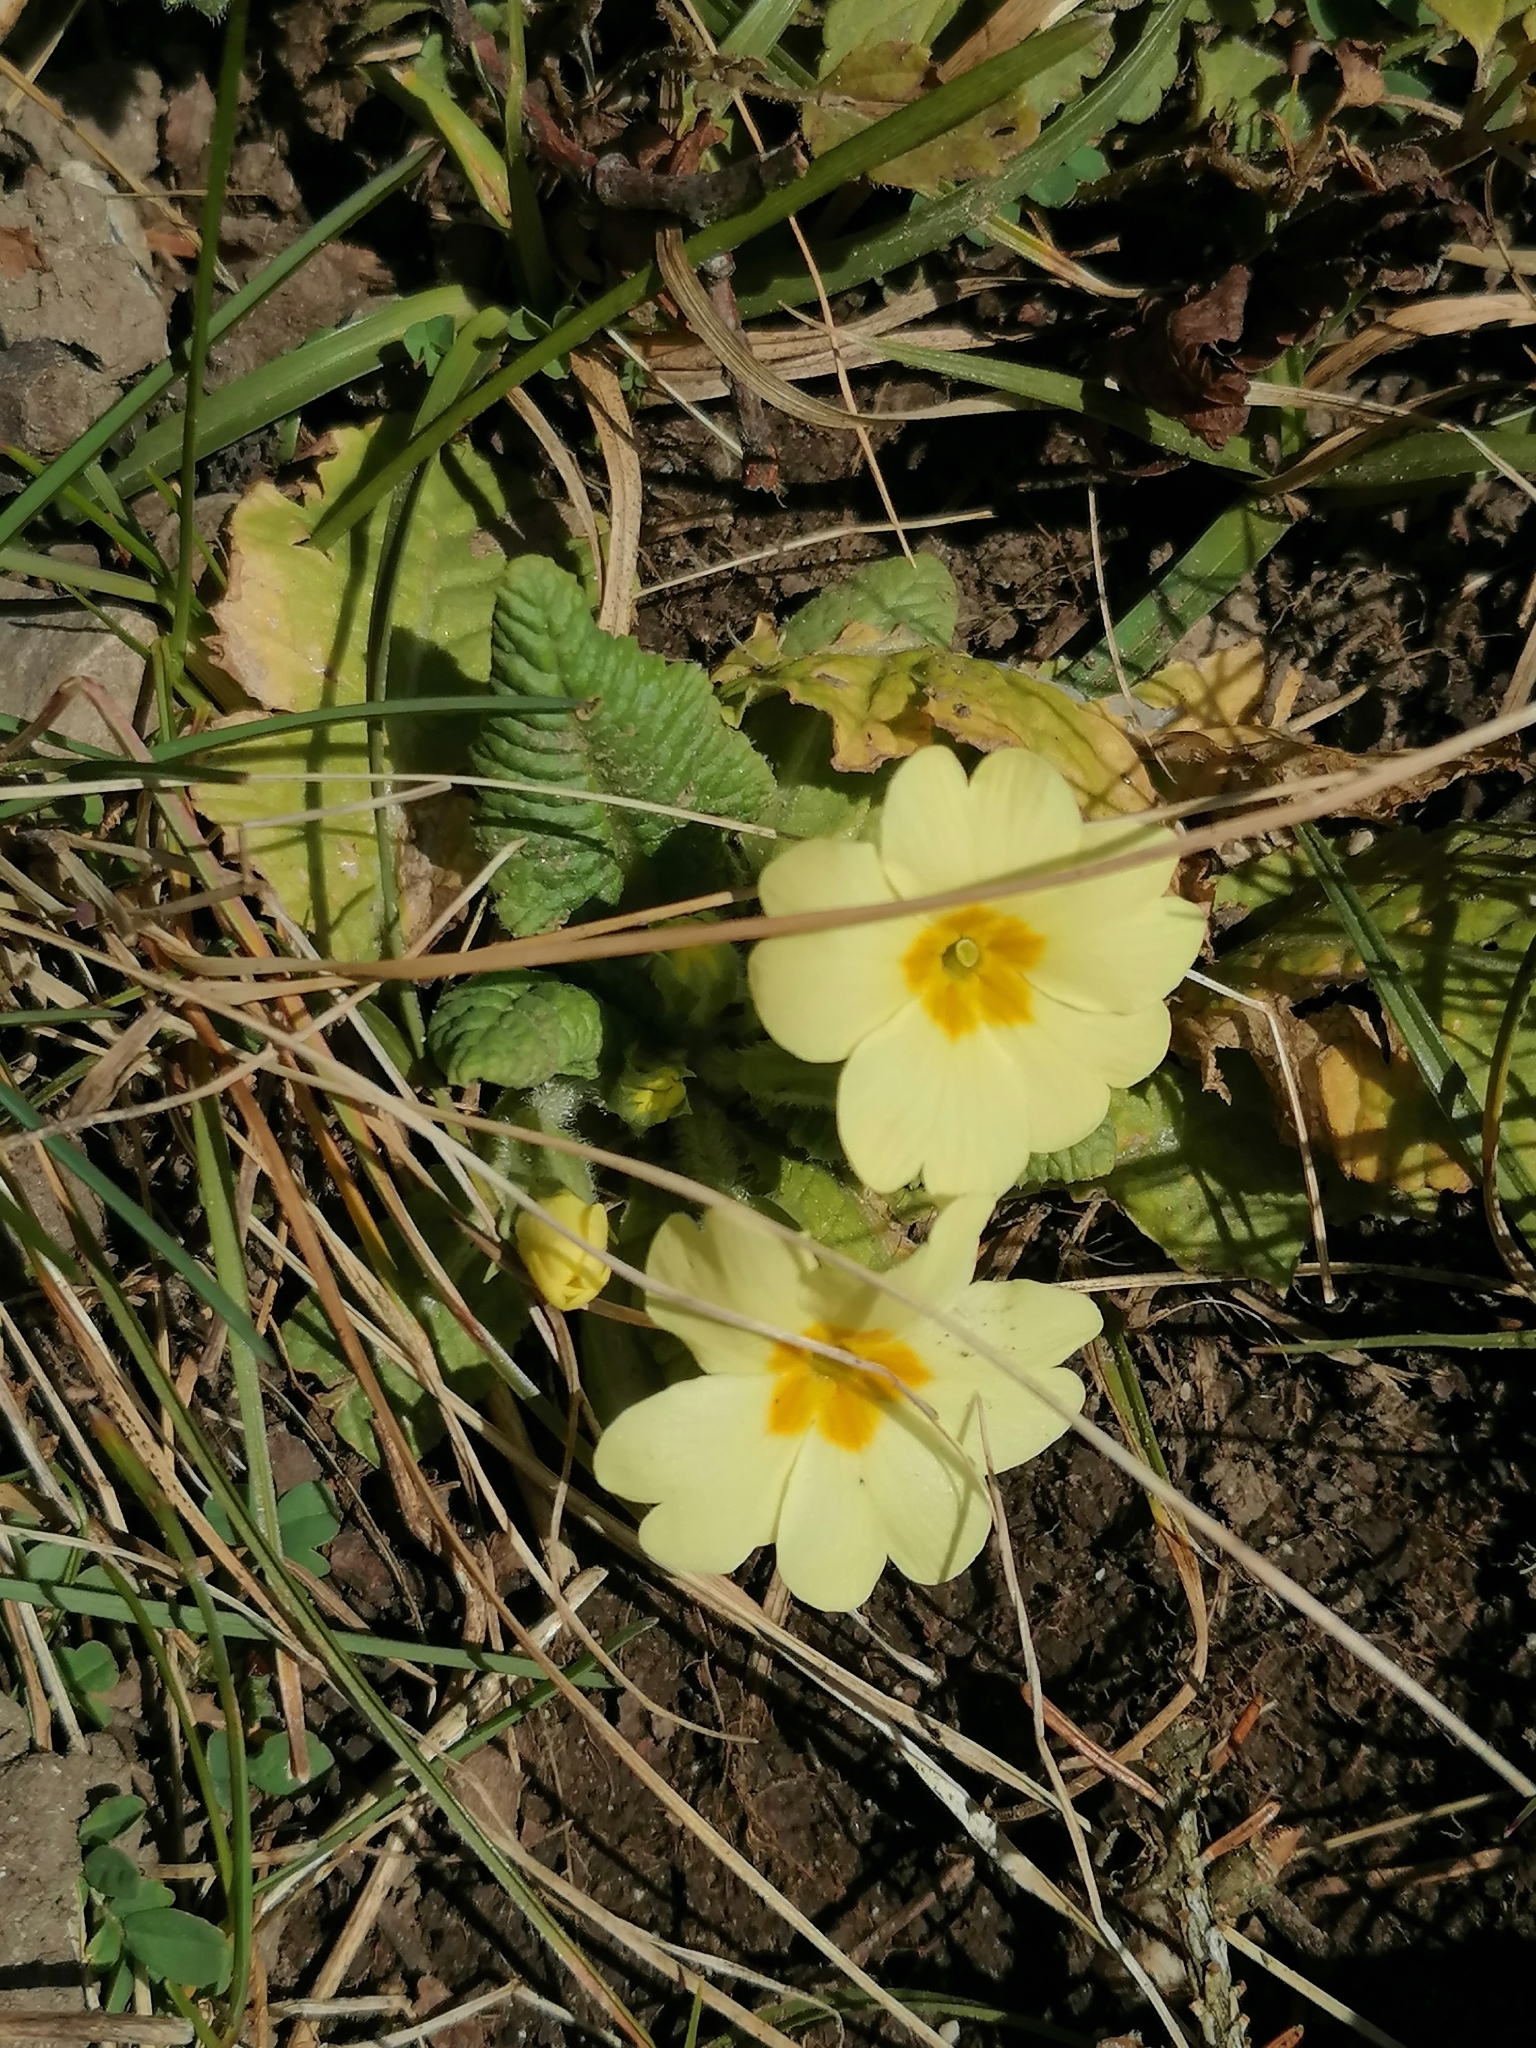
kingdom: Plantae
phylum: Tracheophyta
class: Magnoliopsida
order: Ericales
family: Primulaceae
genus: Primula
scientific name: Primula vulgaris
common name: Primrose
